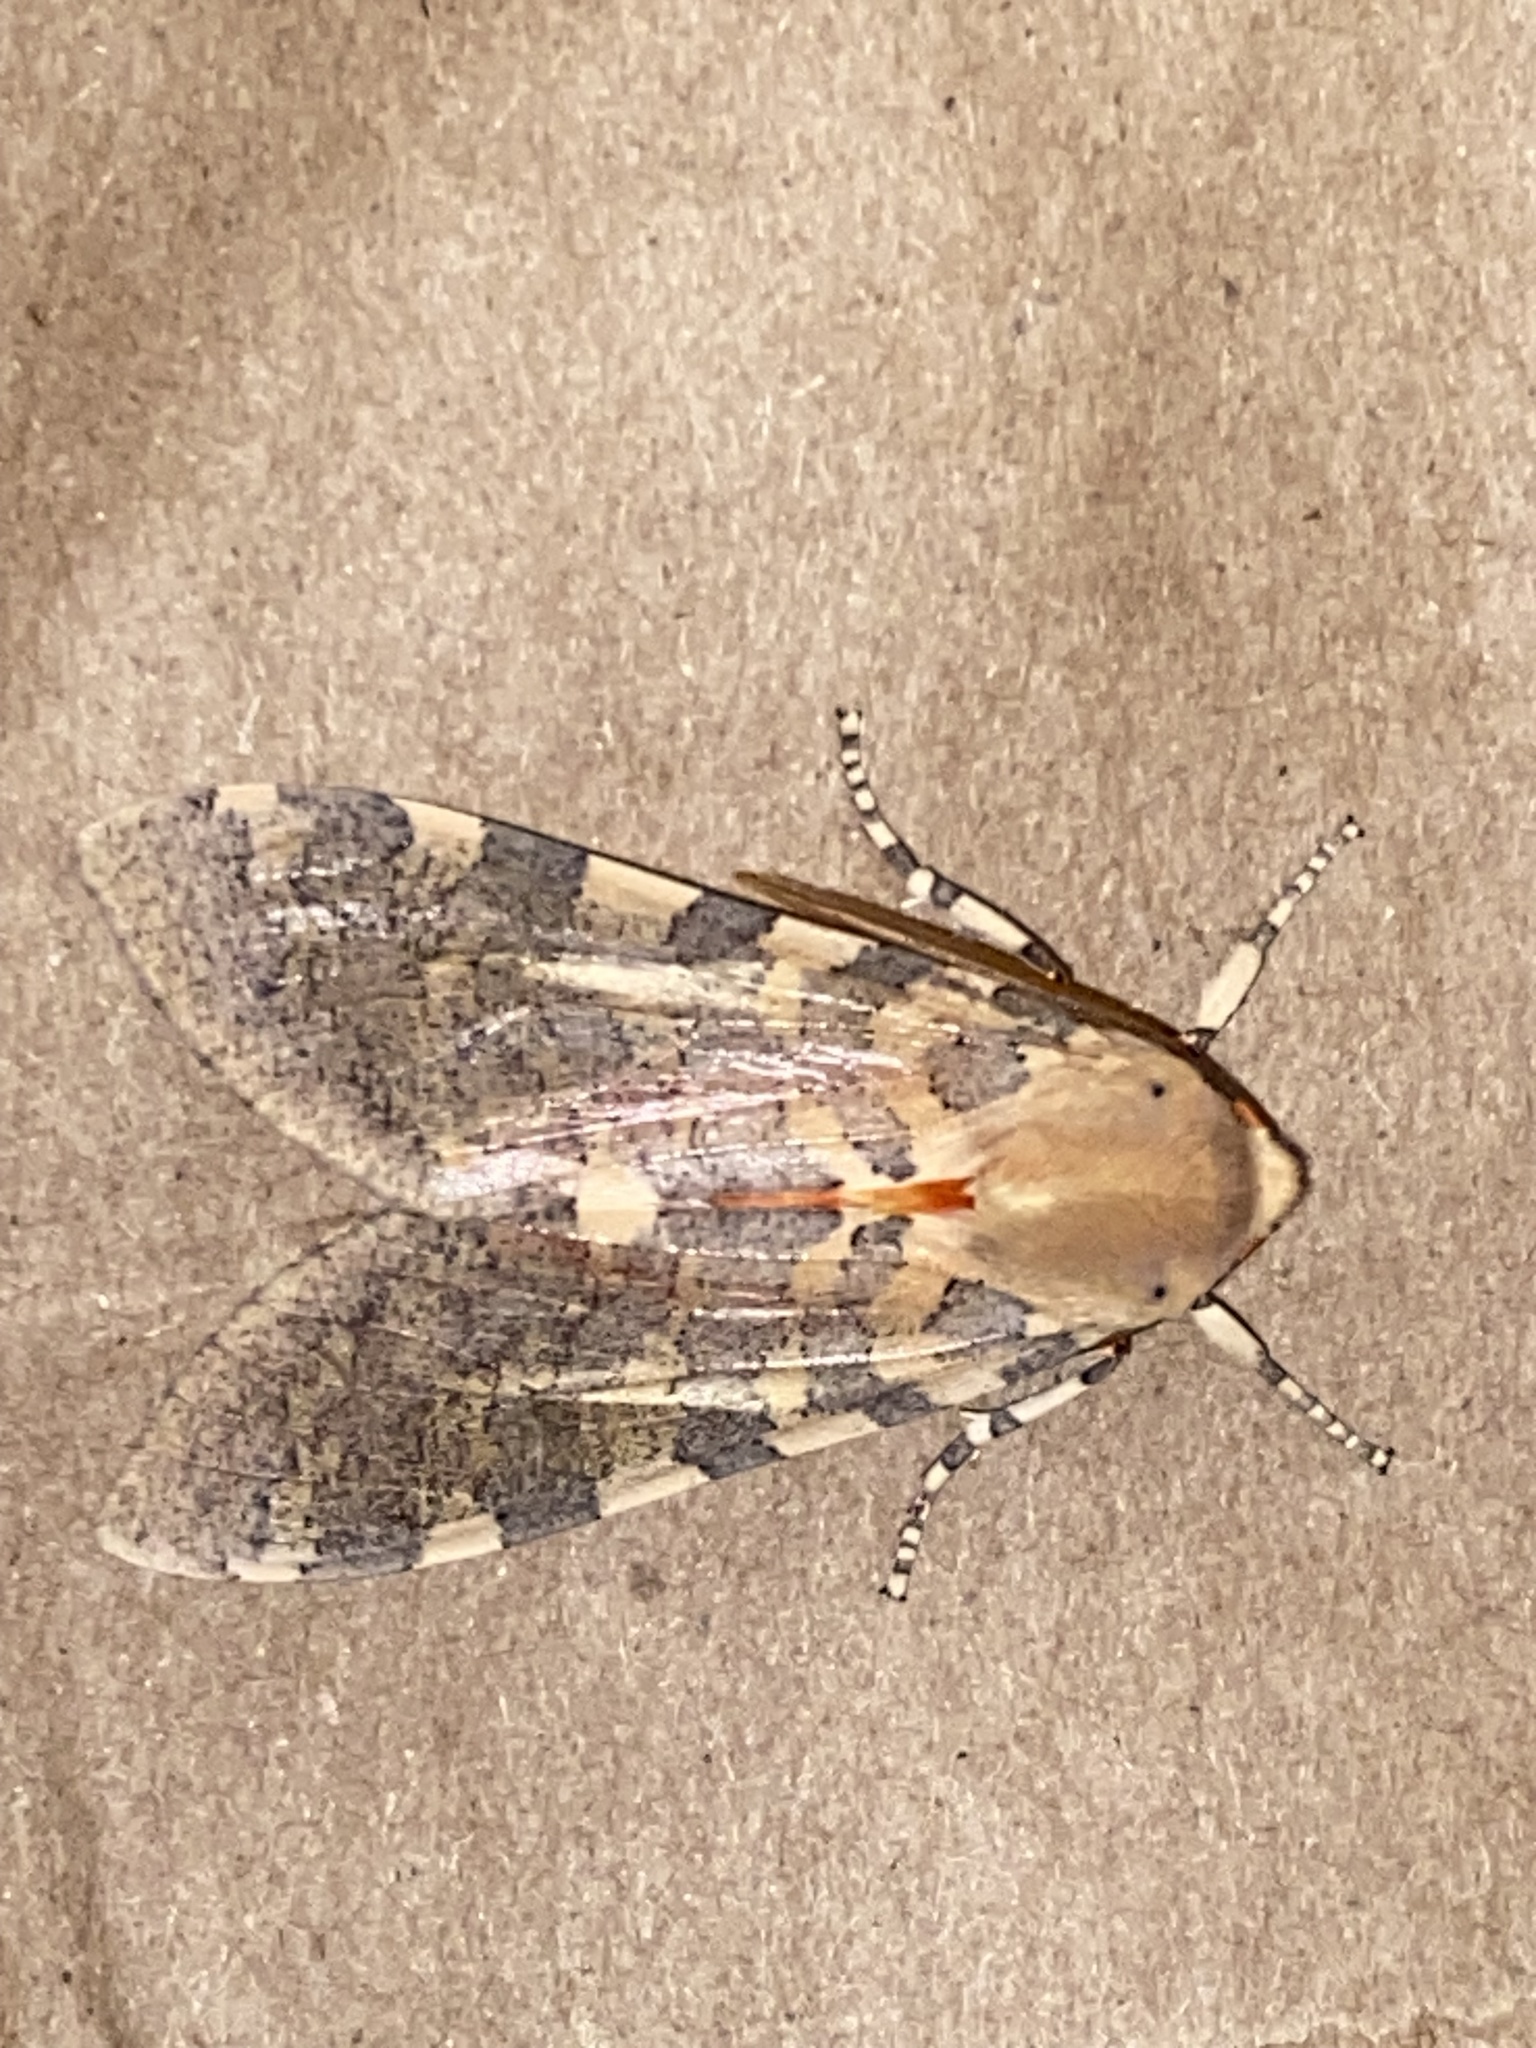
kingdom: Animalia
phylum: Arthropoda
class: Insecta
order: Lepidoptera
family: Erebidae
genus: Hemihyalea
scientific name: Hemihyalea edwardsii
